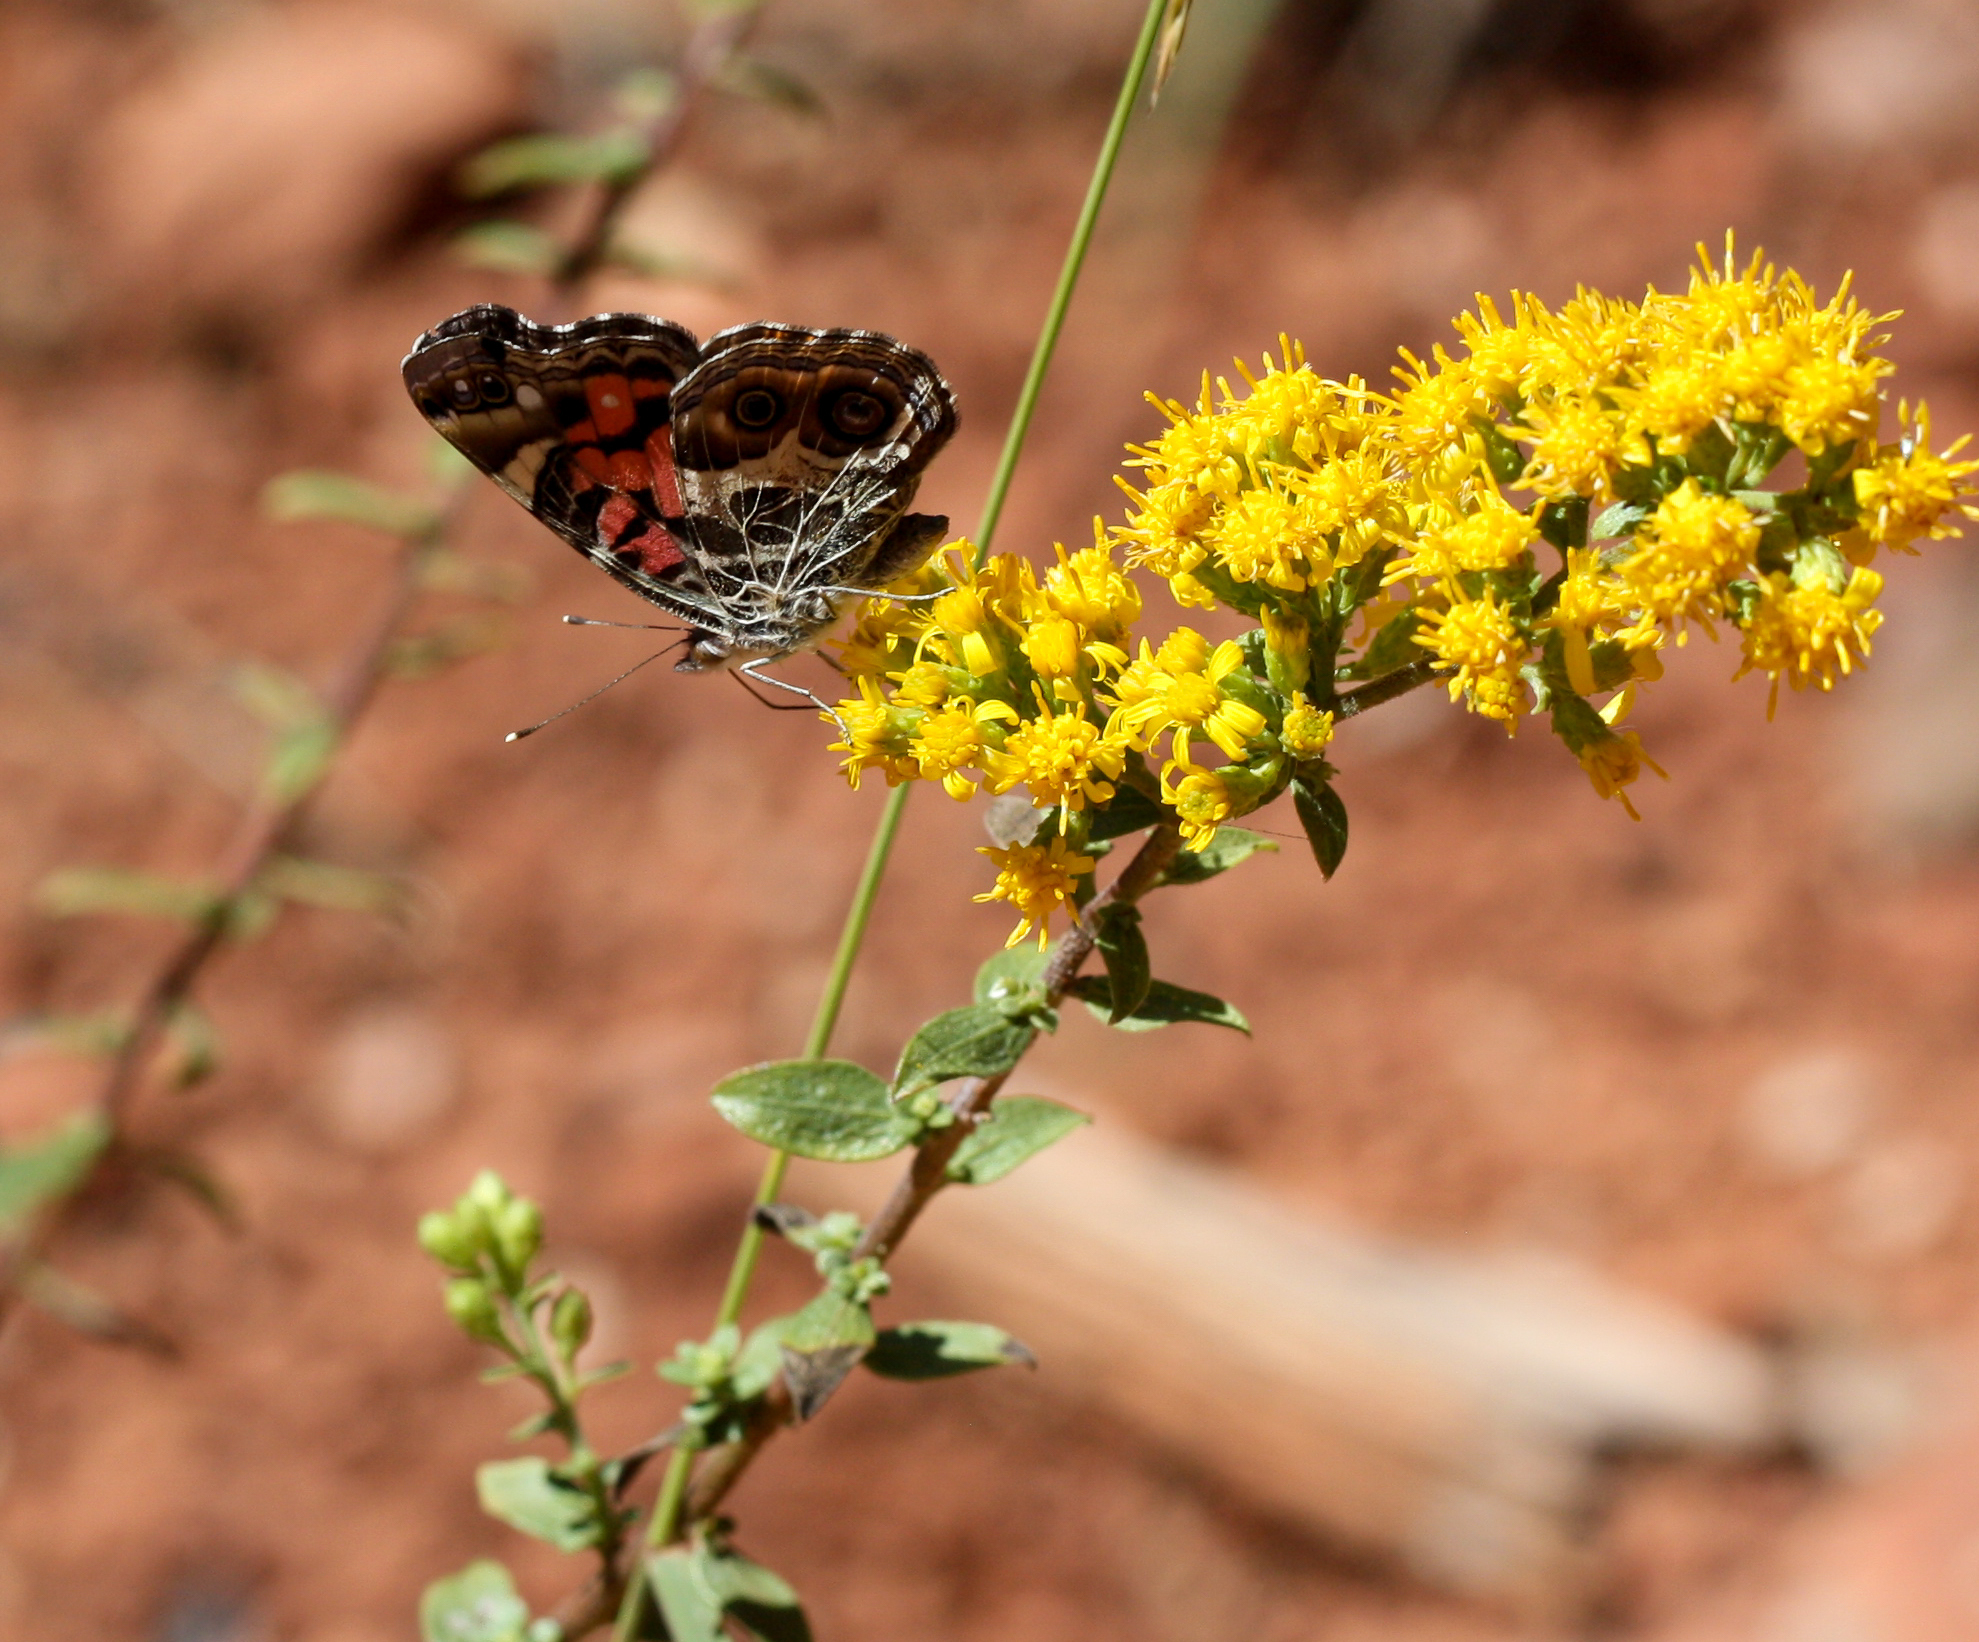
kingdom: Animalia
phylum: Arthropoda
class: Insecta
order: Lepidoptera
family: Nymphalidae
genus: Vanessa
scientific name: Vanessa virginiensis
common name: American lady
